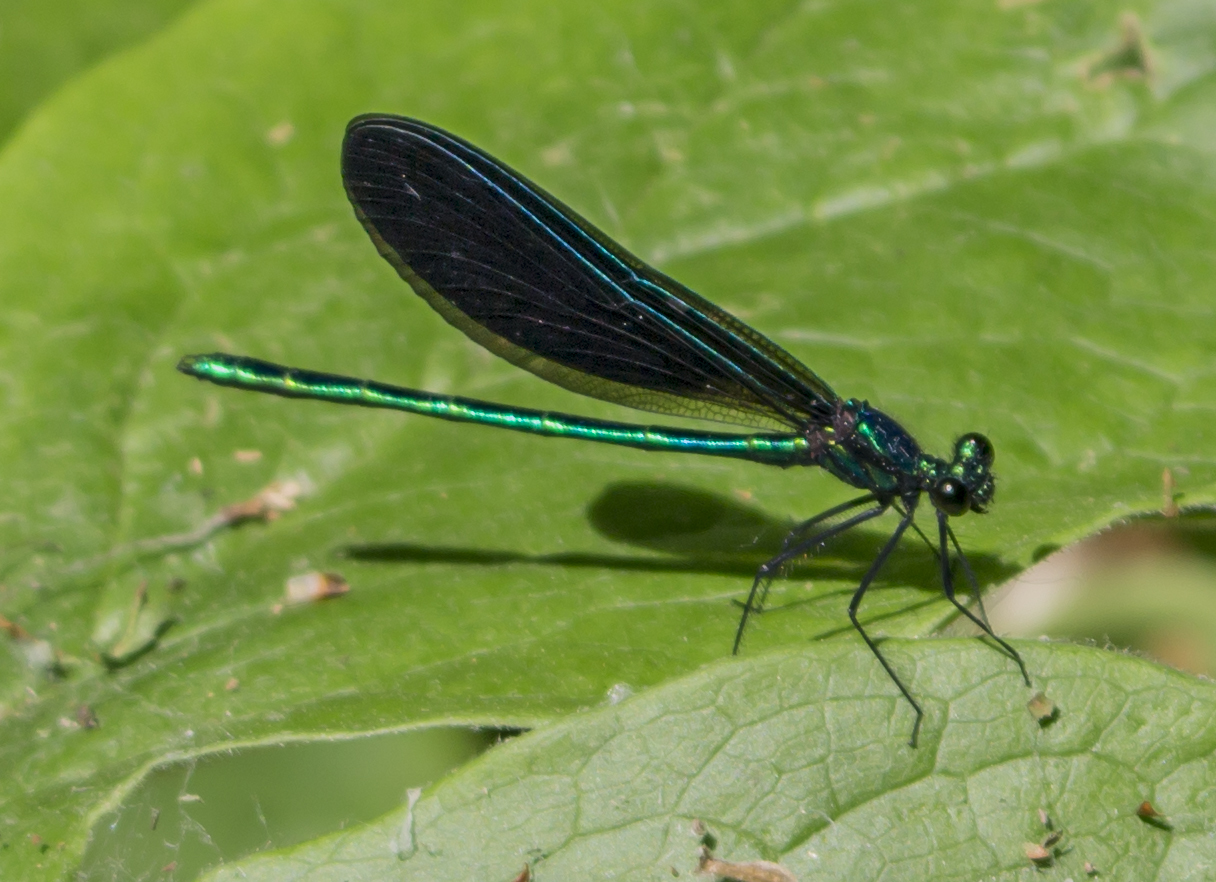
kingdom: Animalia
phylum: Arthropoda
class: Insecta
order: Odonata
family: Calopterygidae
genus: Calopteryx
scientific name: Calopteryx maculata
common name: Ebony jewelwing
